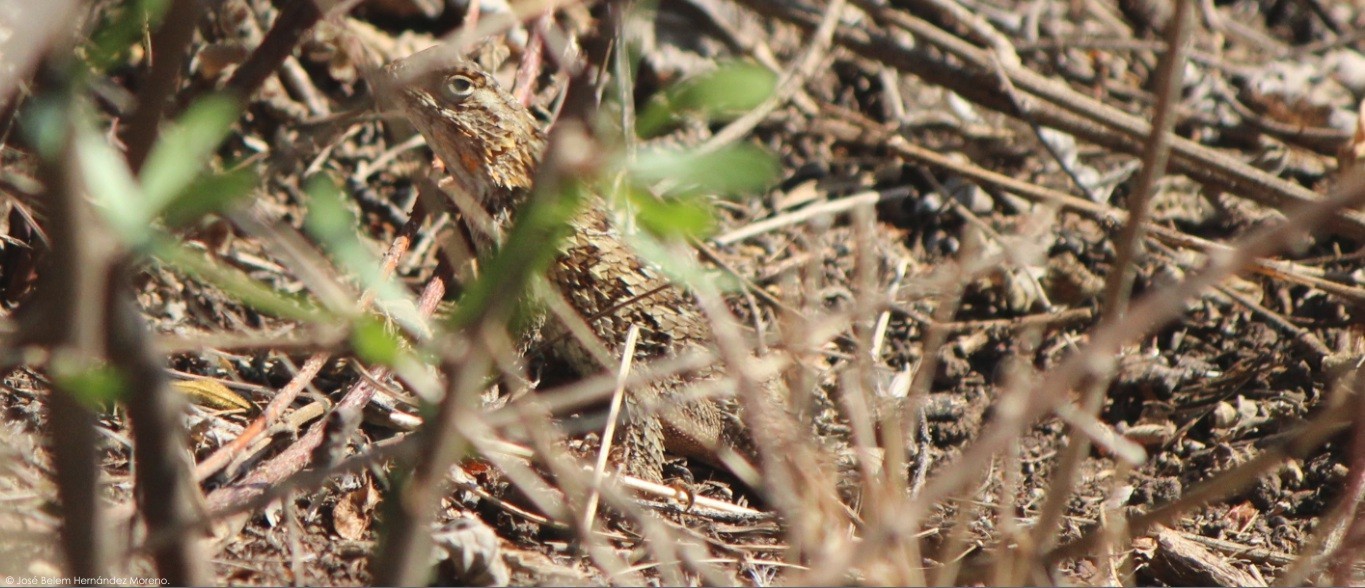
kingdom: Animalia
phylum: Chordata
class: Squamata
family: Phrynosomatidae
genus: Sceloporus
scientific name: Sceloporus spinosus
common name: Blue-spotted spiny lizard [caeruleopunctatus]
